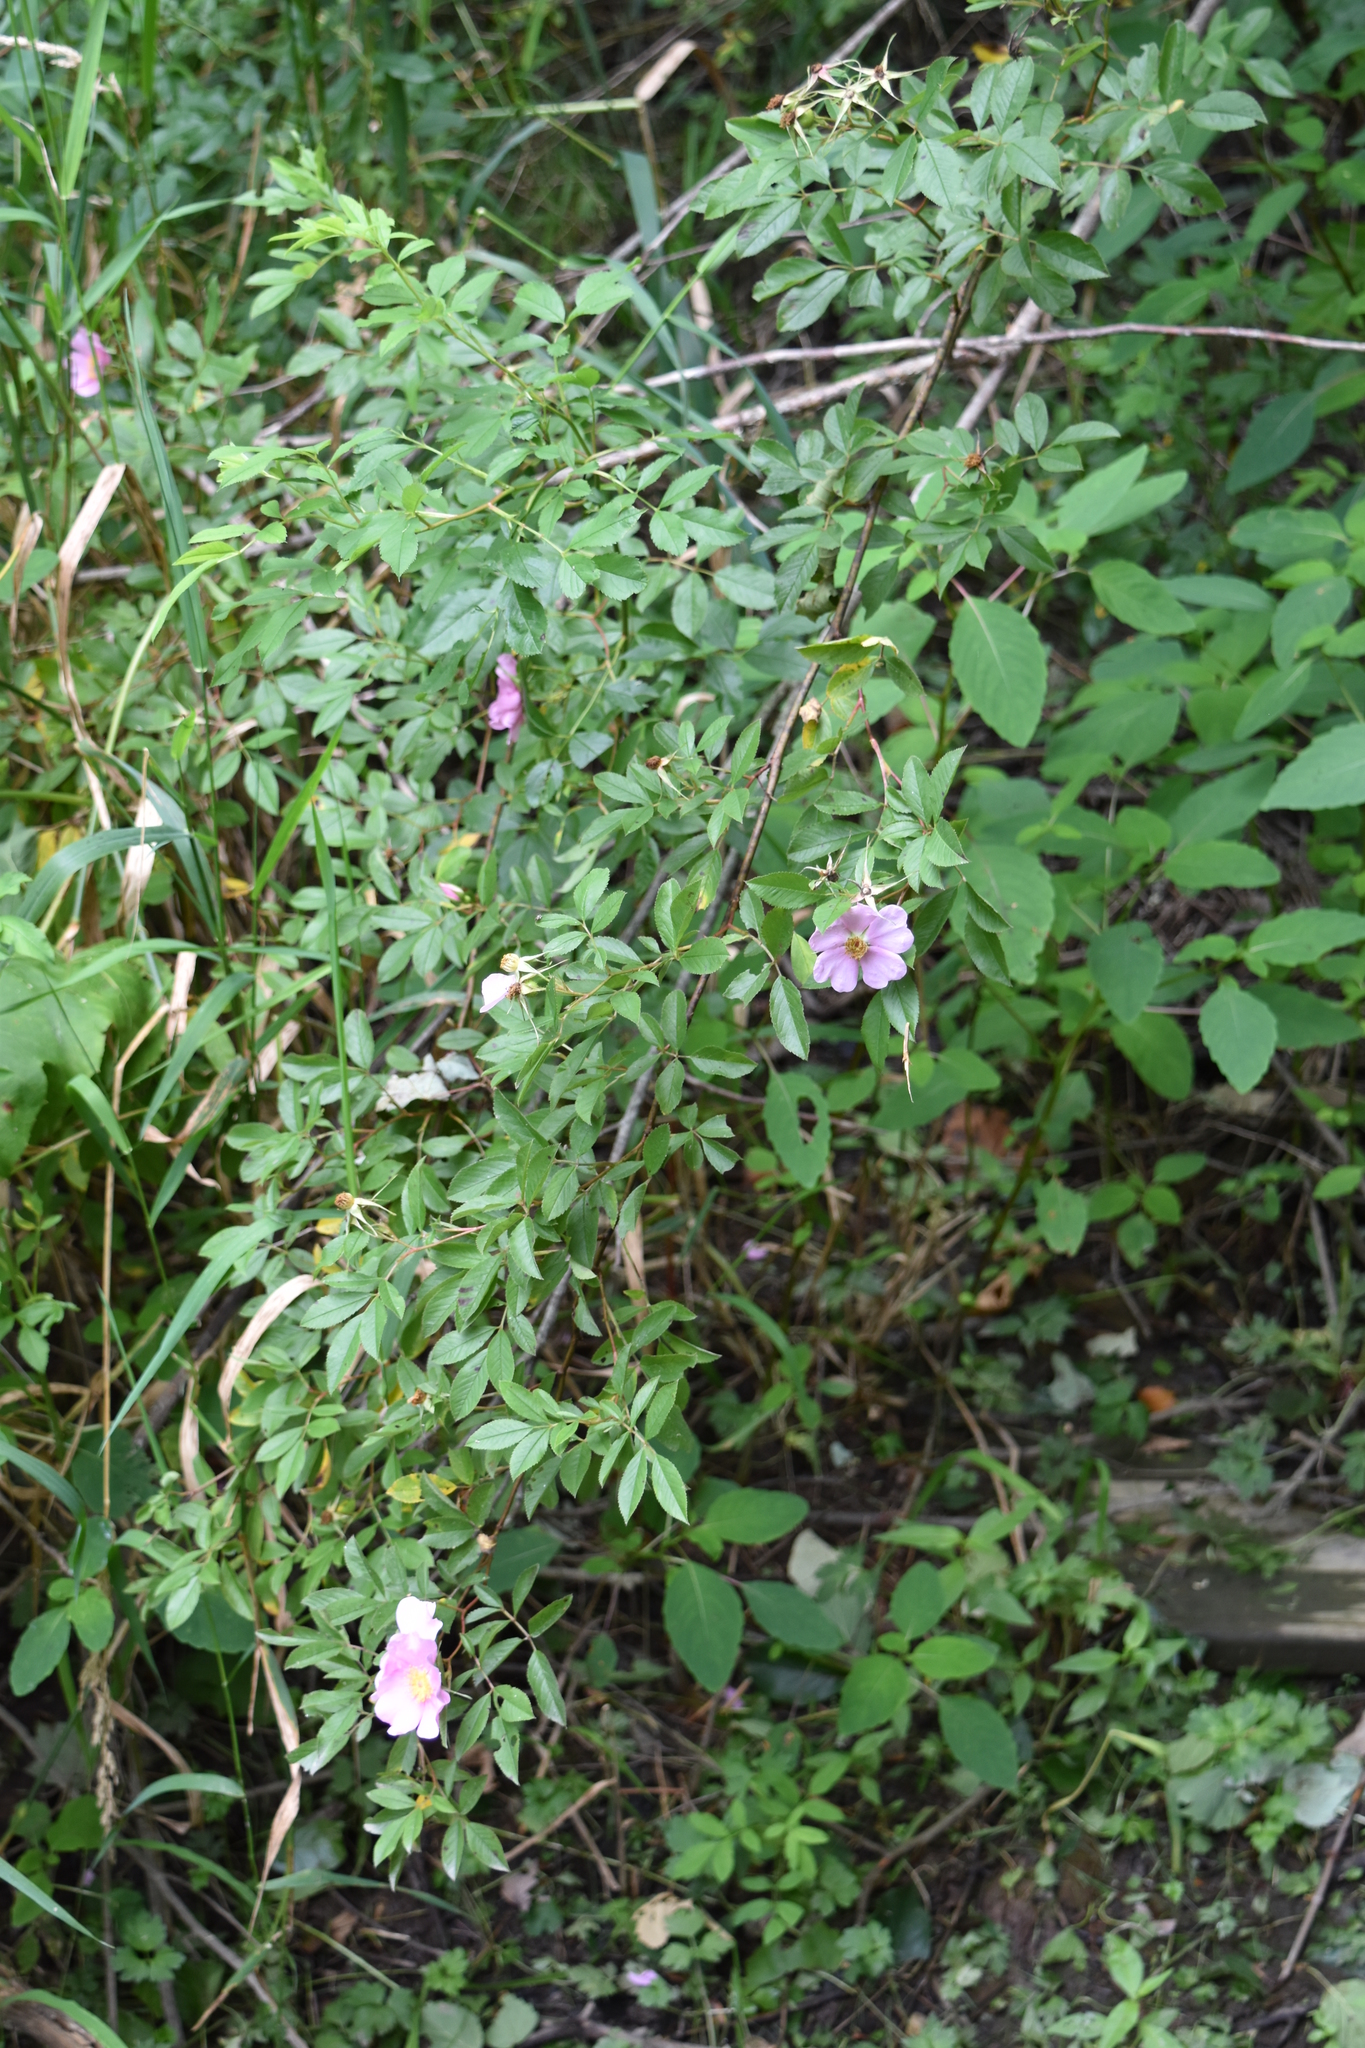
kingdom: Plantae
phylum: Tracheophyta
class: Magnoliopsida
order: Rosales
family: Rosaceae
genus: Rosa
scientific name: Rosa palustris
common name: Swamp rose
